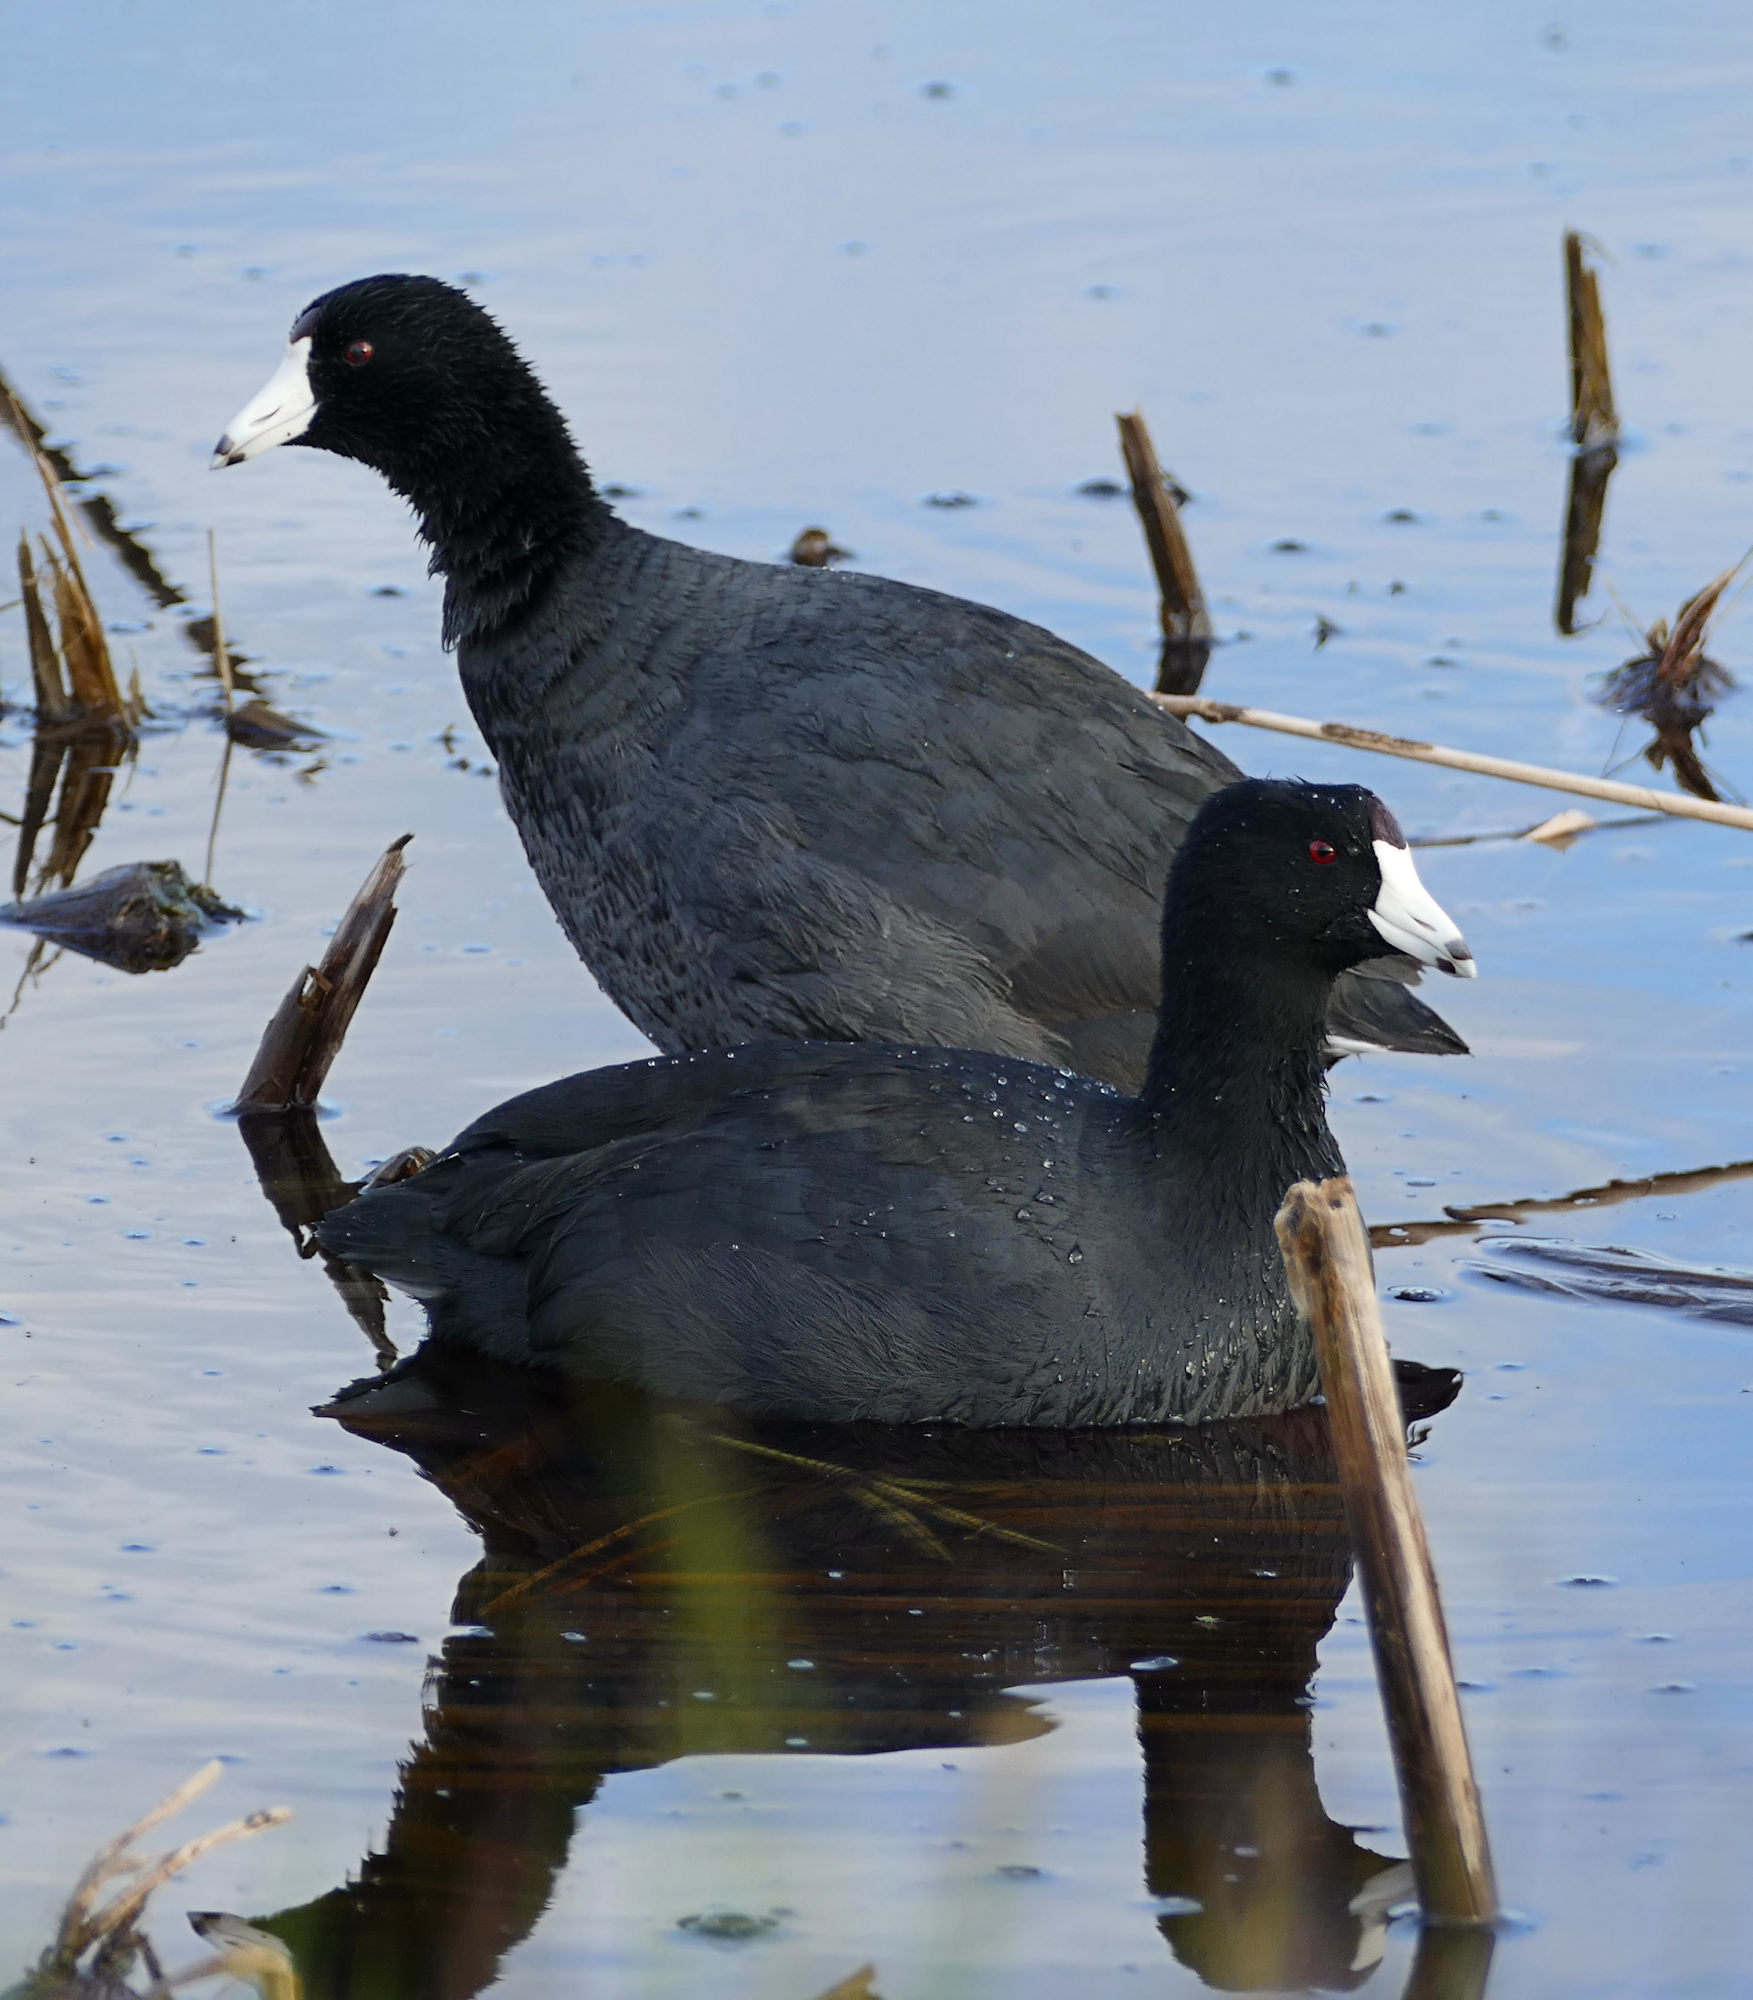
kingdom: Animalia
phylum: Chordata
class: Aves
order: Gruiformes
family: Rallidae
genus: Fulica
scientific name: Fulica americana
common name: American coot
